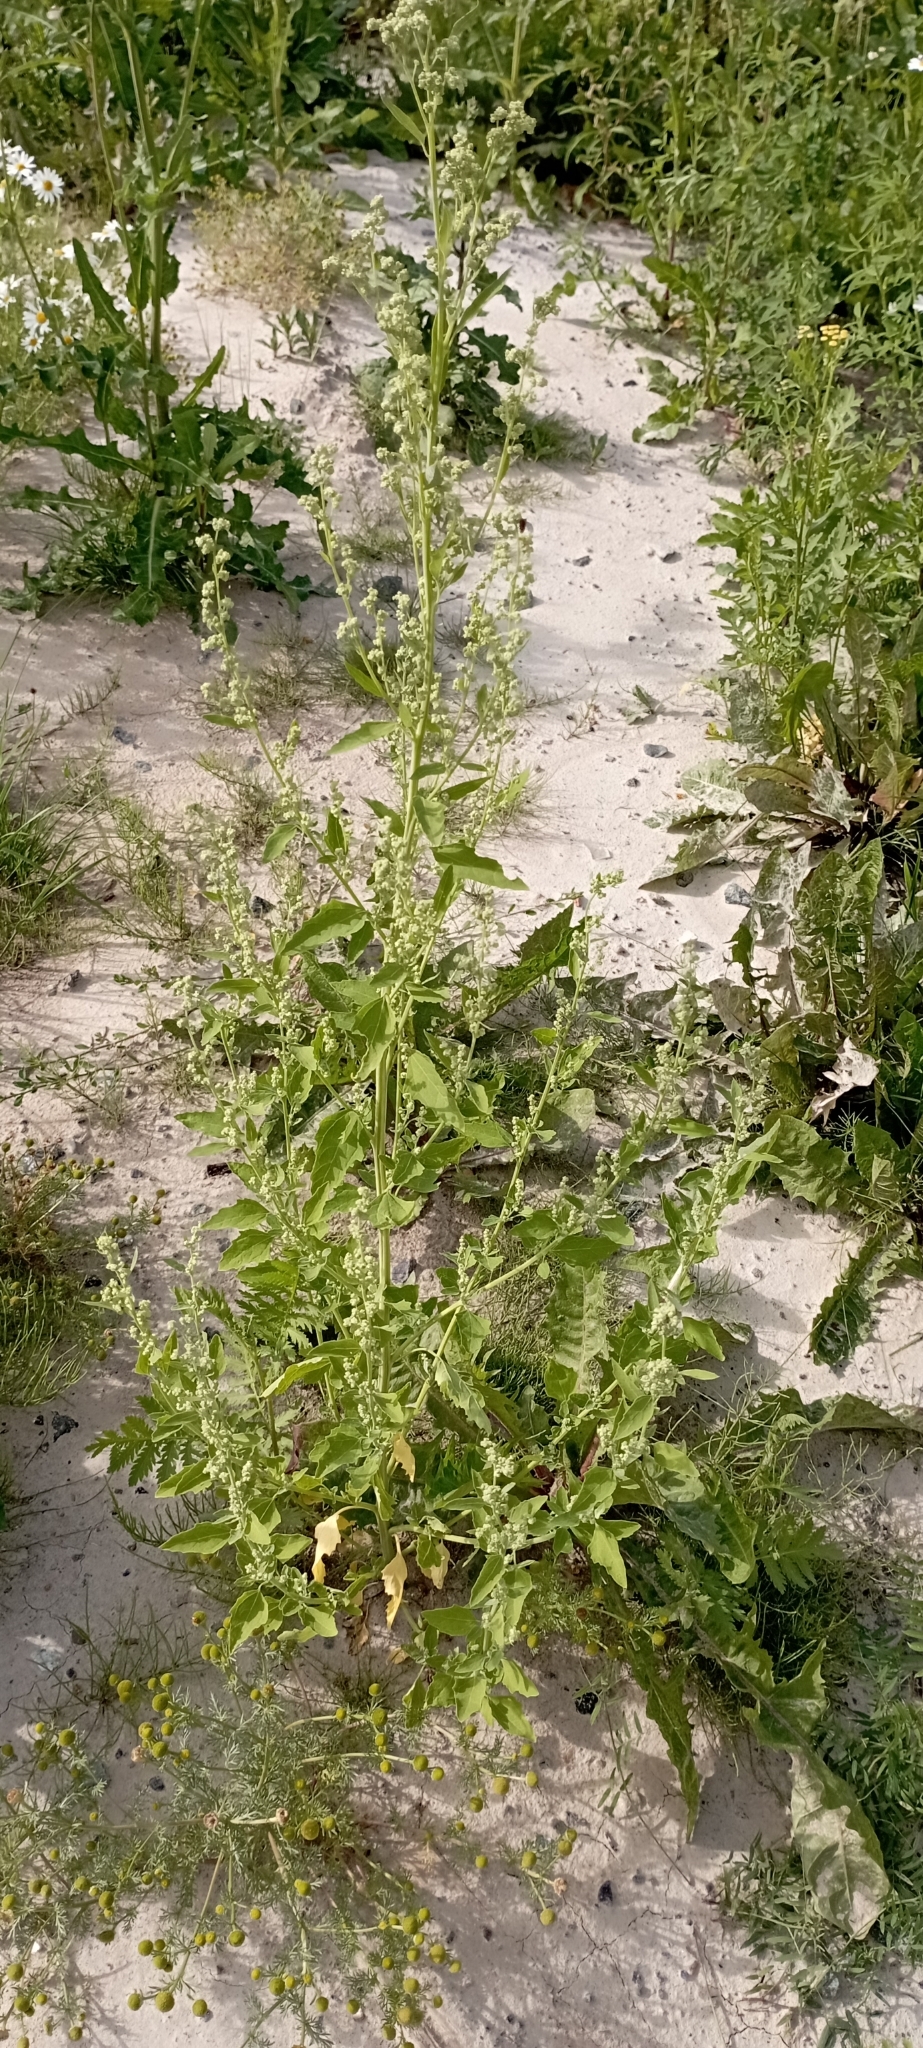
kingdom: Plantae
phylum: Tracheophyta
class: Magnoliopsida
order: Caryophyllales
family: Amaranthaceae
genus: Chenopodium
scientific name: Chenopodium album
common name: Fat-hen
